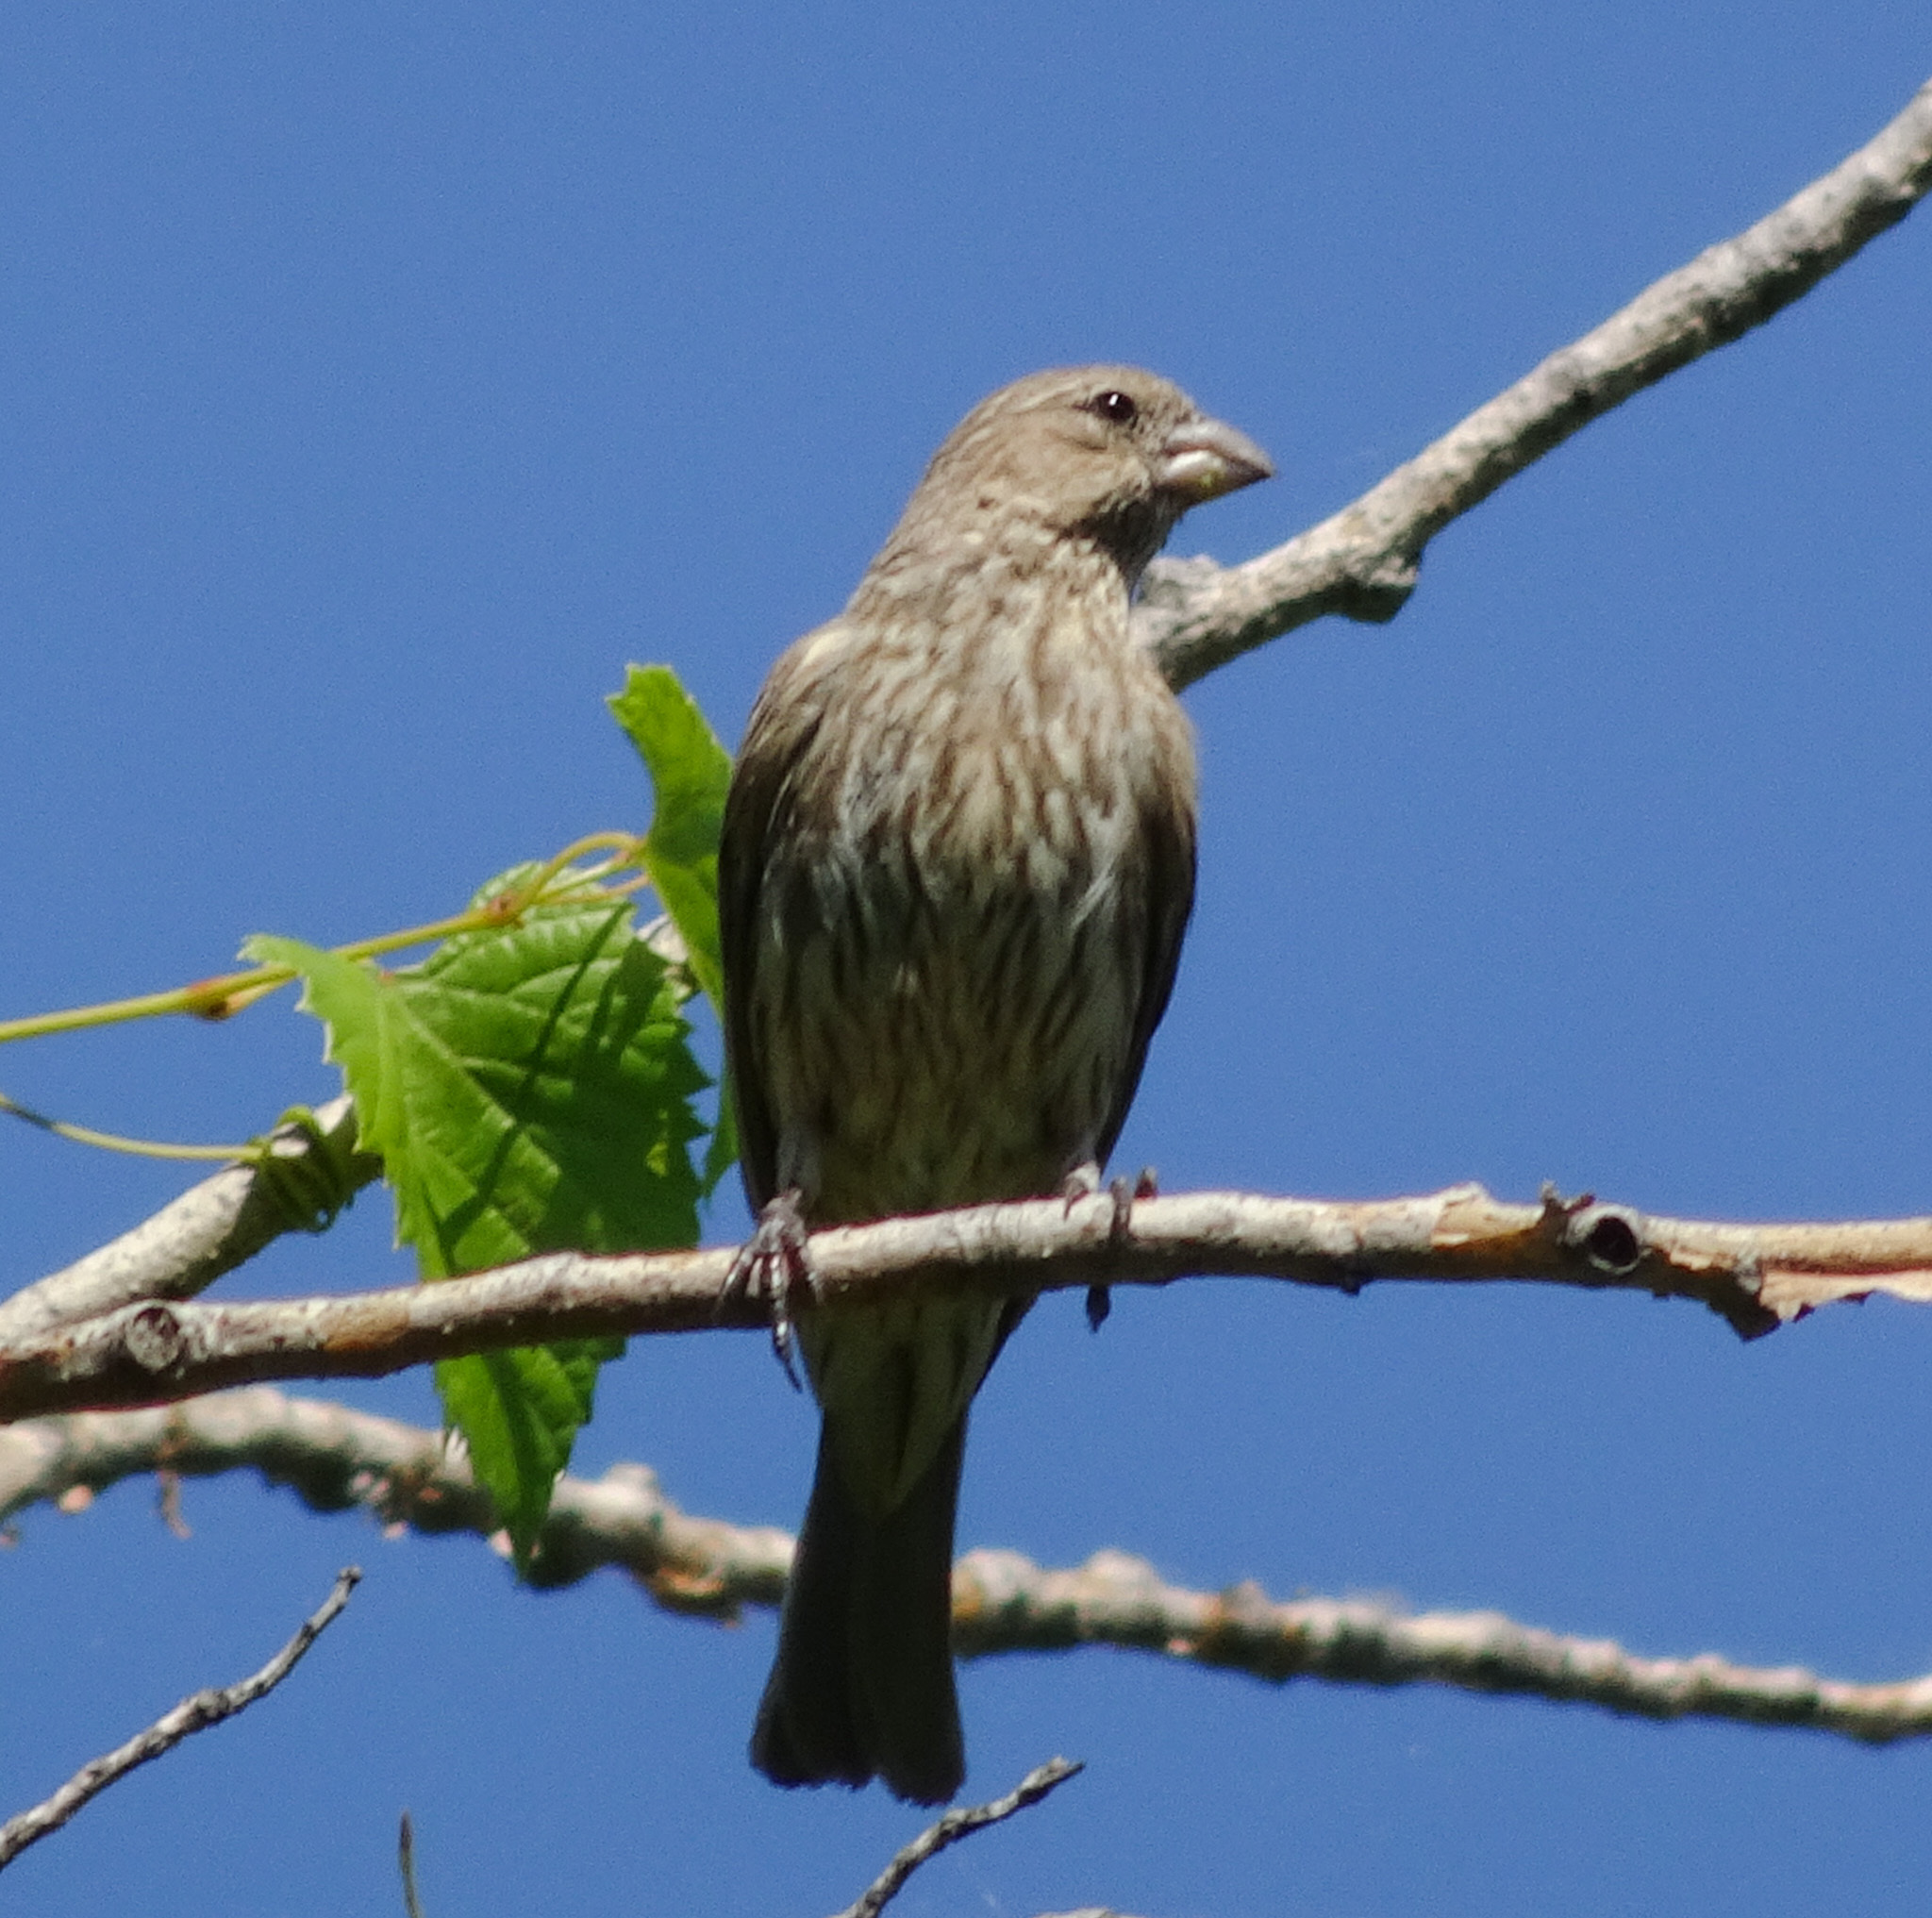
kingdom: Animalia
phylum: Chordata
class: Aves
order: Passeriformes
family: Fringillidae
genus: Haemorhous
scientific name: Haemorhous mexicanus
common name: House finch
